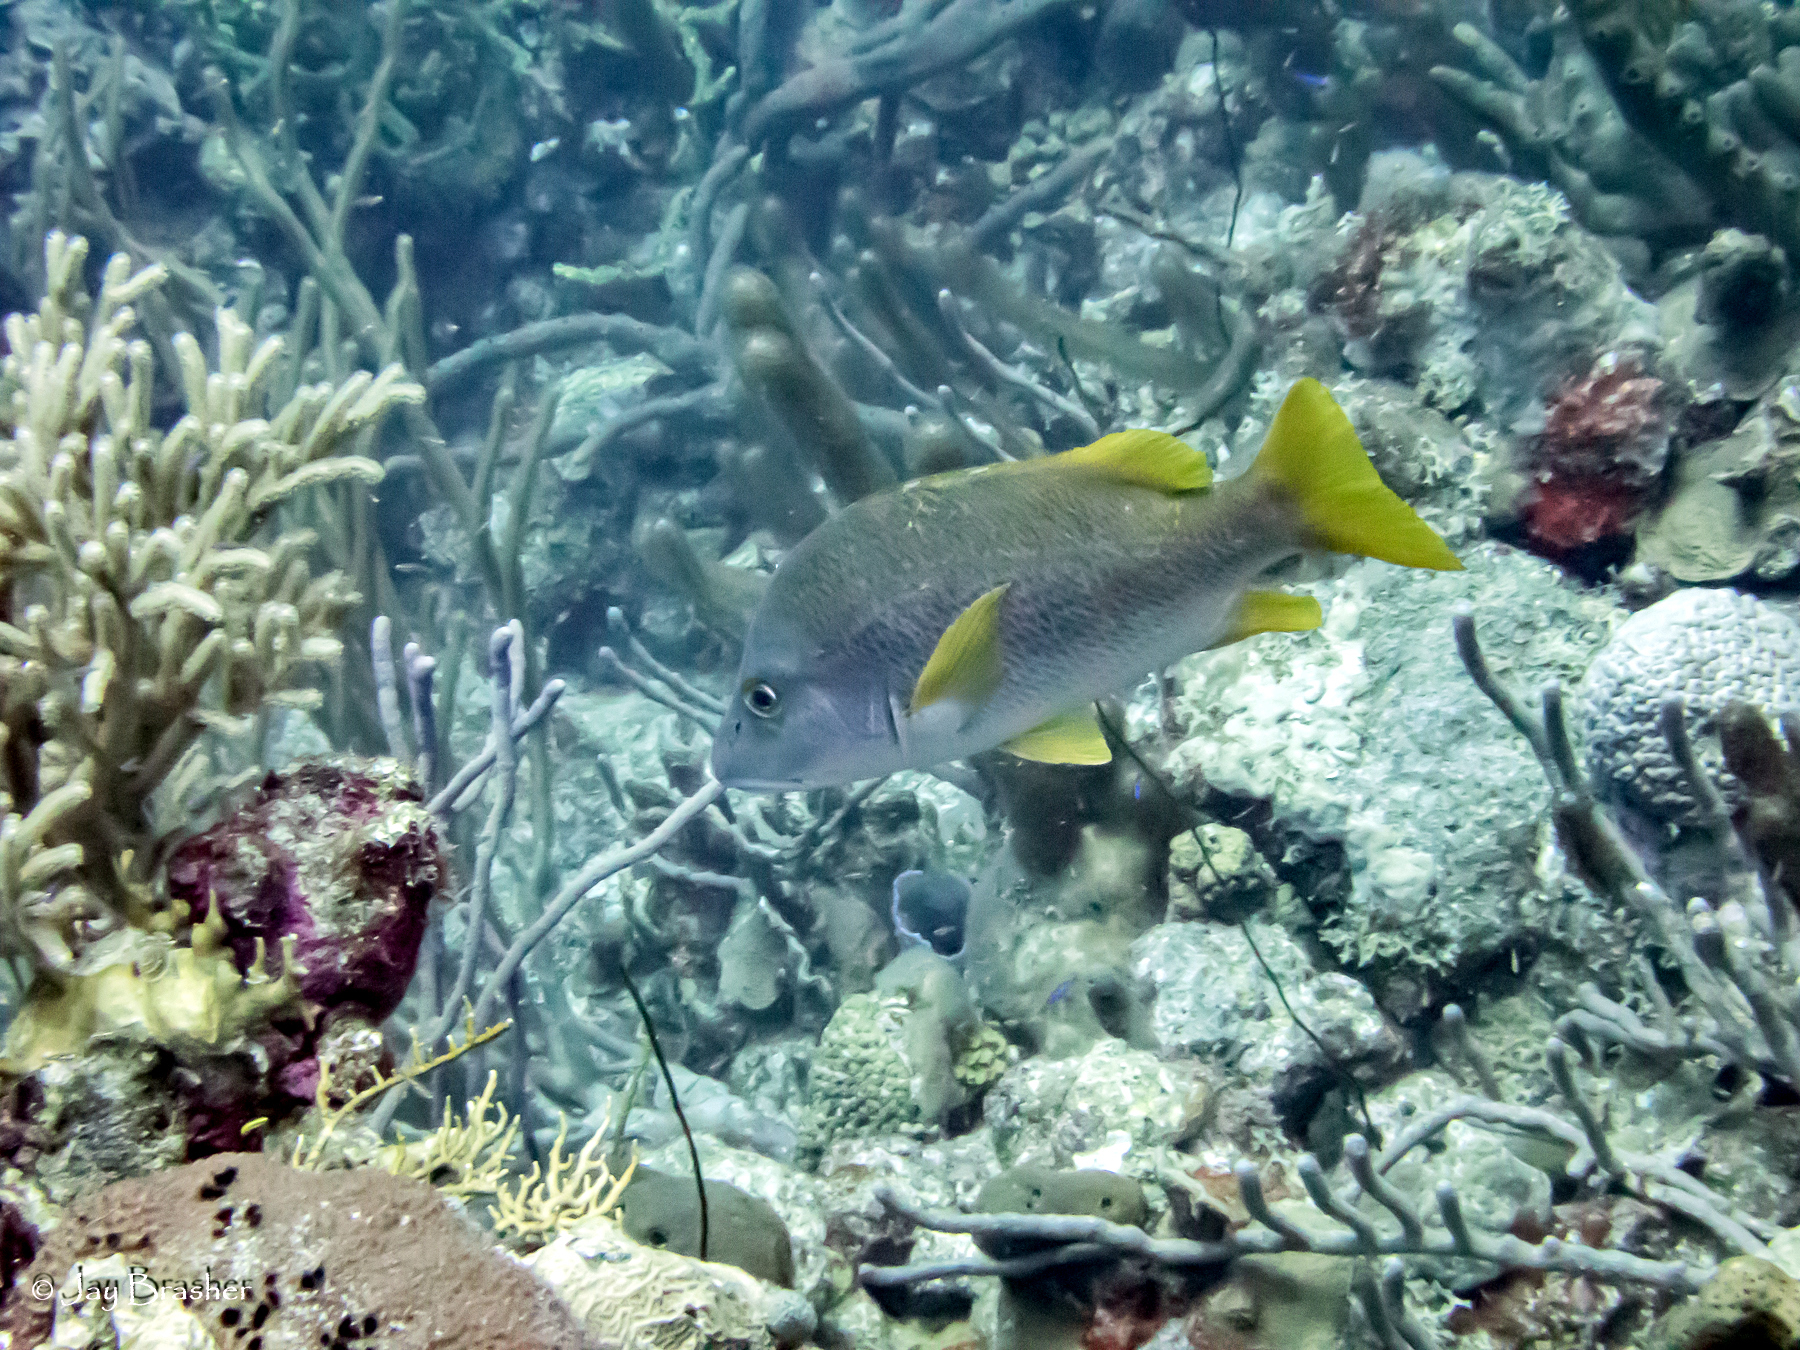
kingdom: Animalia
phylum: Chordata
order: Perciformes
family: Lutjanidae
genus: Lutjanus
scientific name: Lutjanus apodus
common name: Schoolmaster
